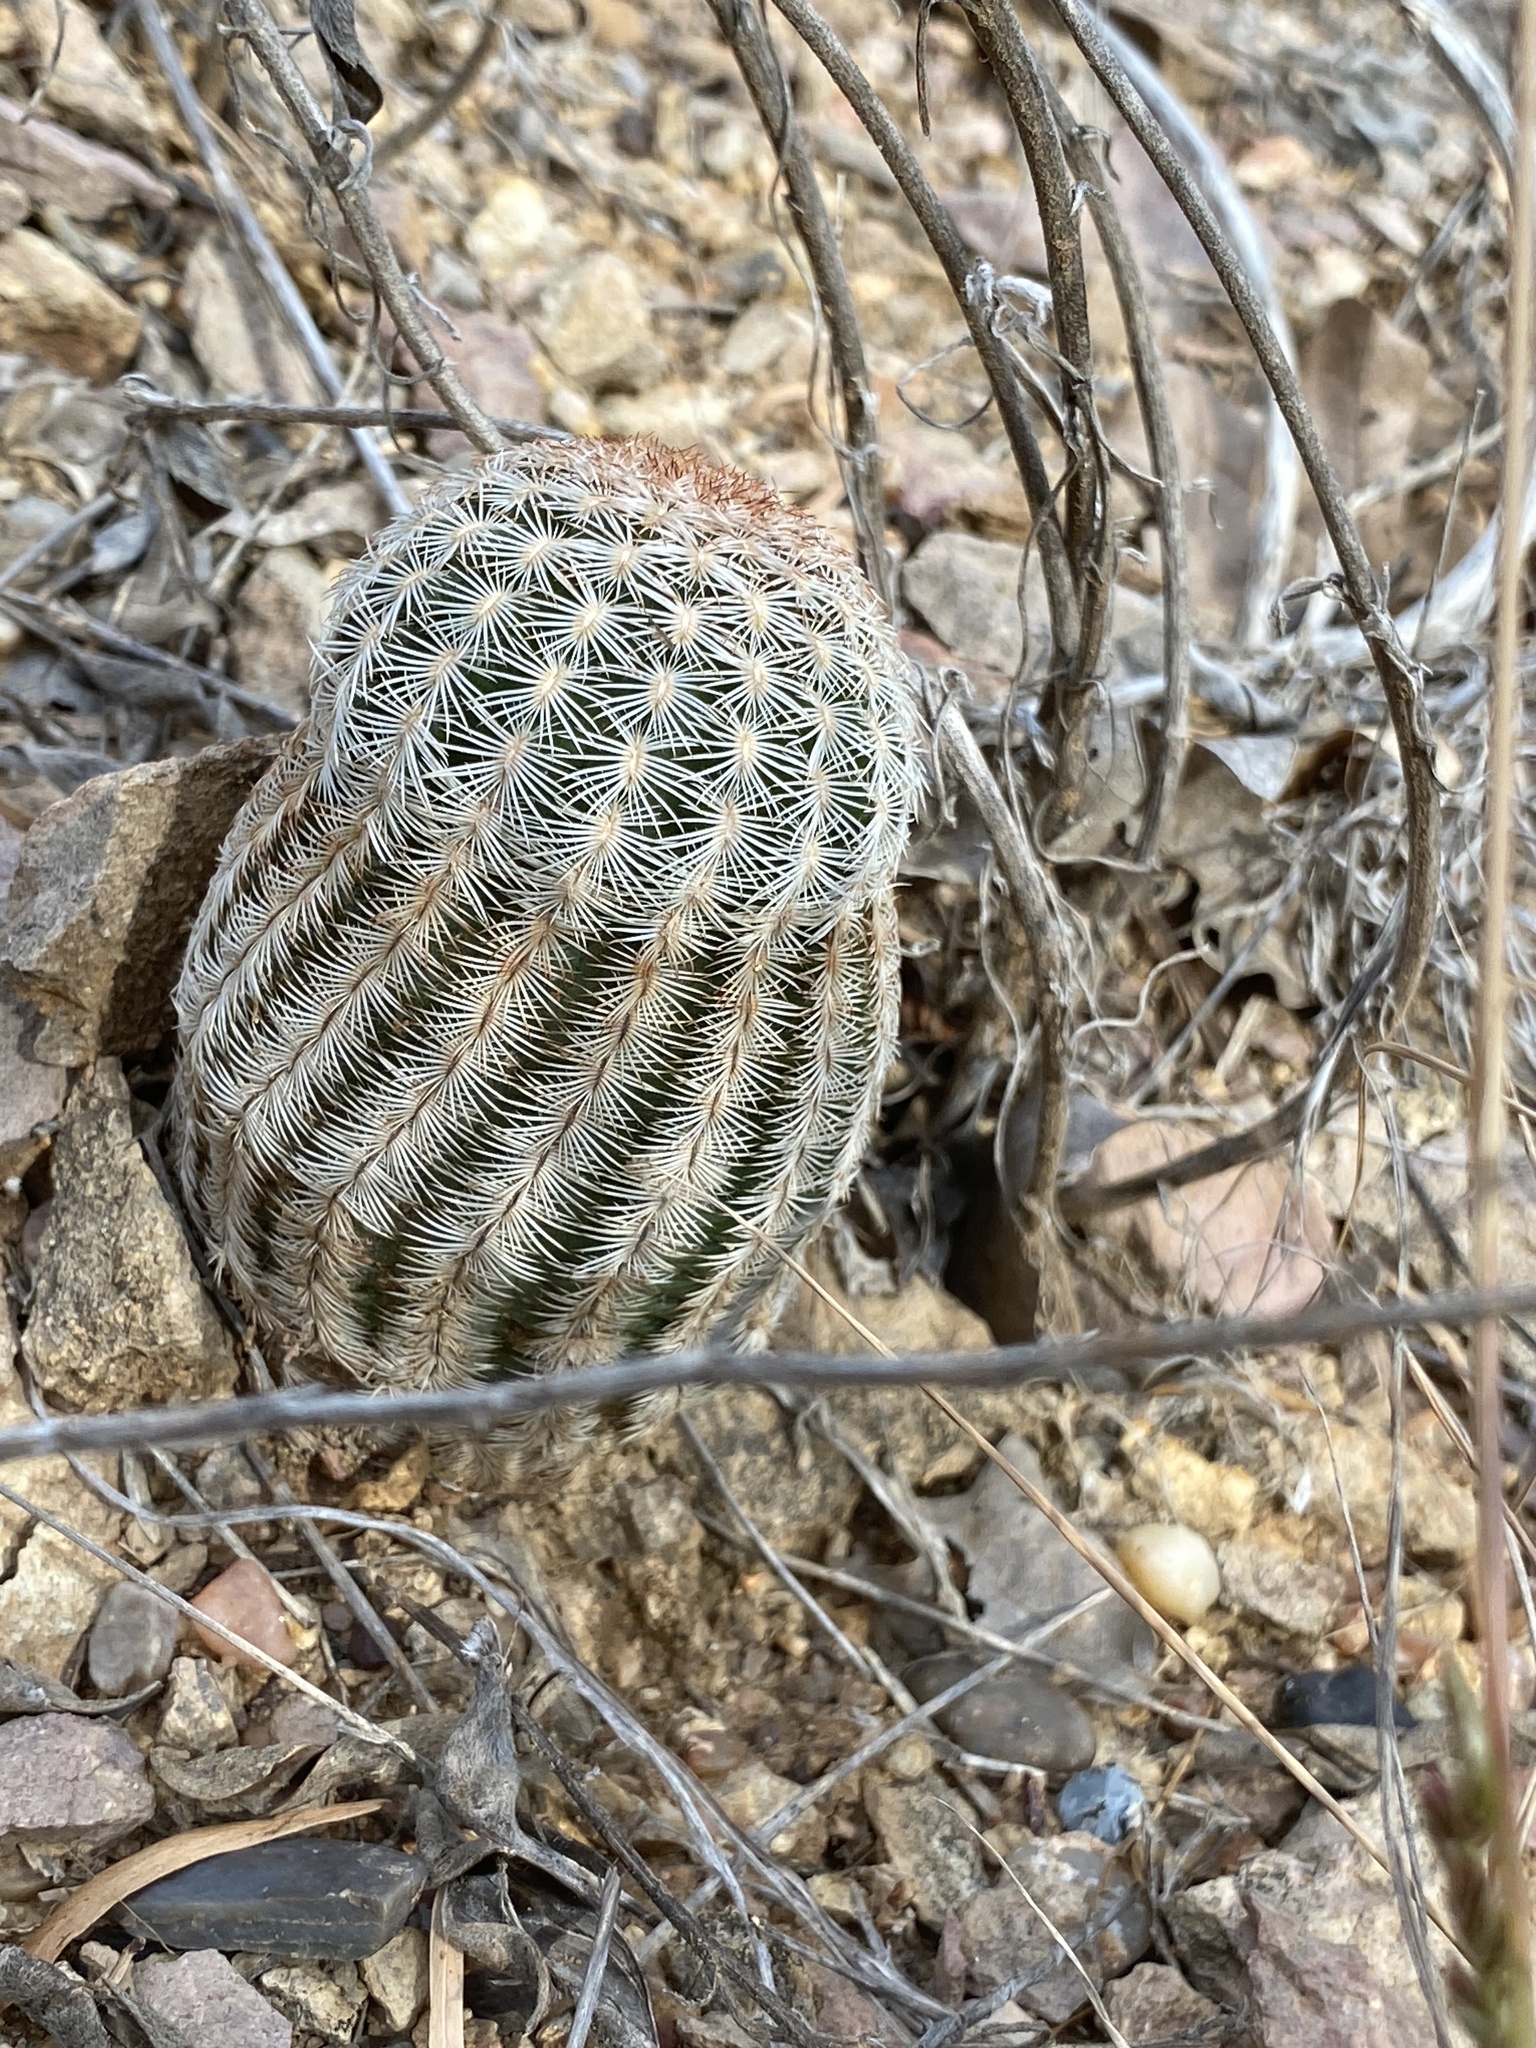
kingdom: Plantae
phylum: Tracheophyta
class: Magnoliopsida
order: Caryophyllales
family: Cactaceae
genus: Echinocereus
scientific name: Echinocereus reichenbachii
